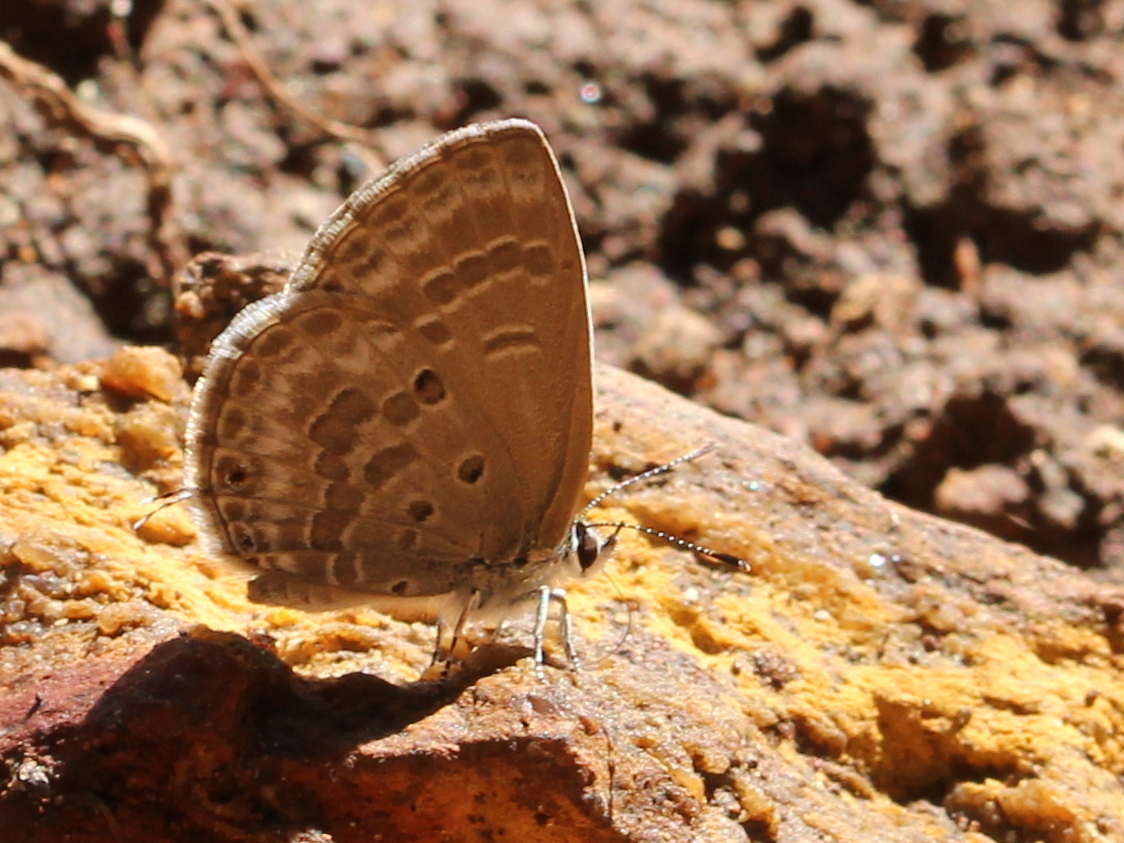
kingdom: Animalia
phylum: Arthropoda
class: Insecta
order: Lepidoptera
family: Lycaenidae
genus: Luthrodes
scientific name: Luthrodes pandava
